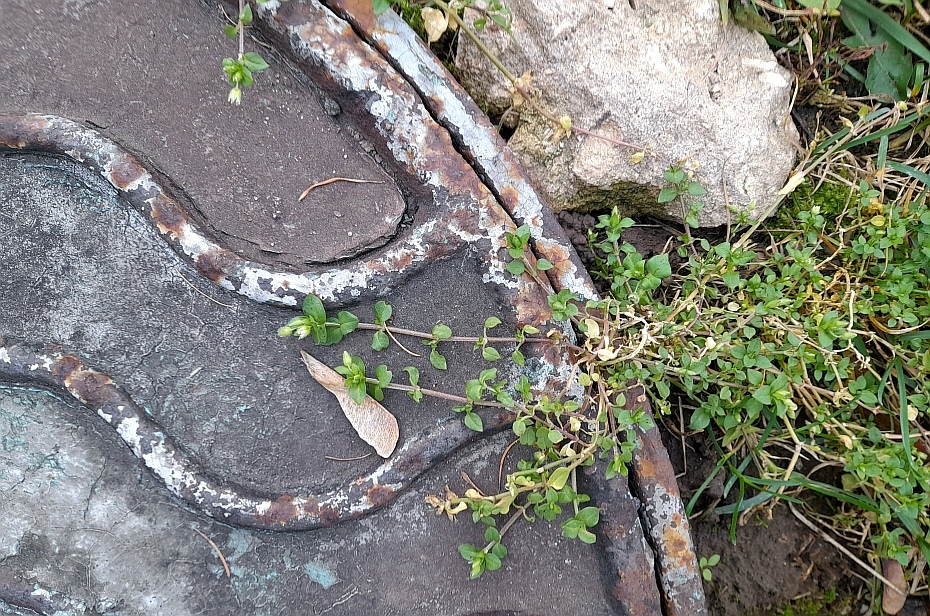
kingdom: Plantae
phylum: Tracheophyta
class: Magnoliopsida
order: Caryophyllales
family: Caryophyllaceae
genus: Stellaria
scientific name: Stellaria media
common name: Common chickweed
